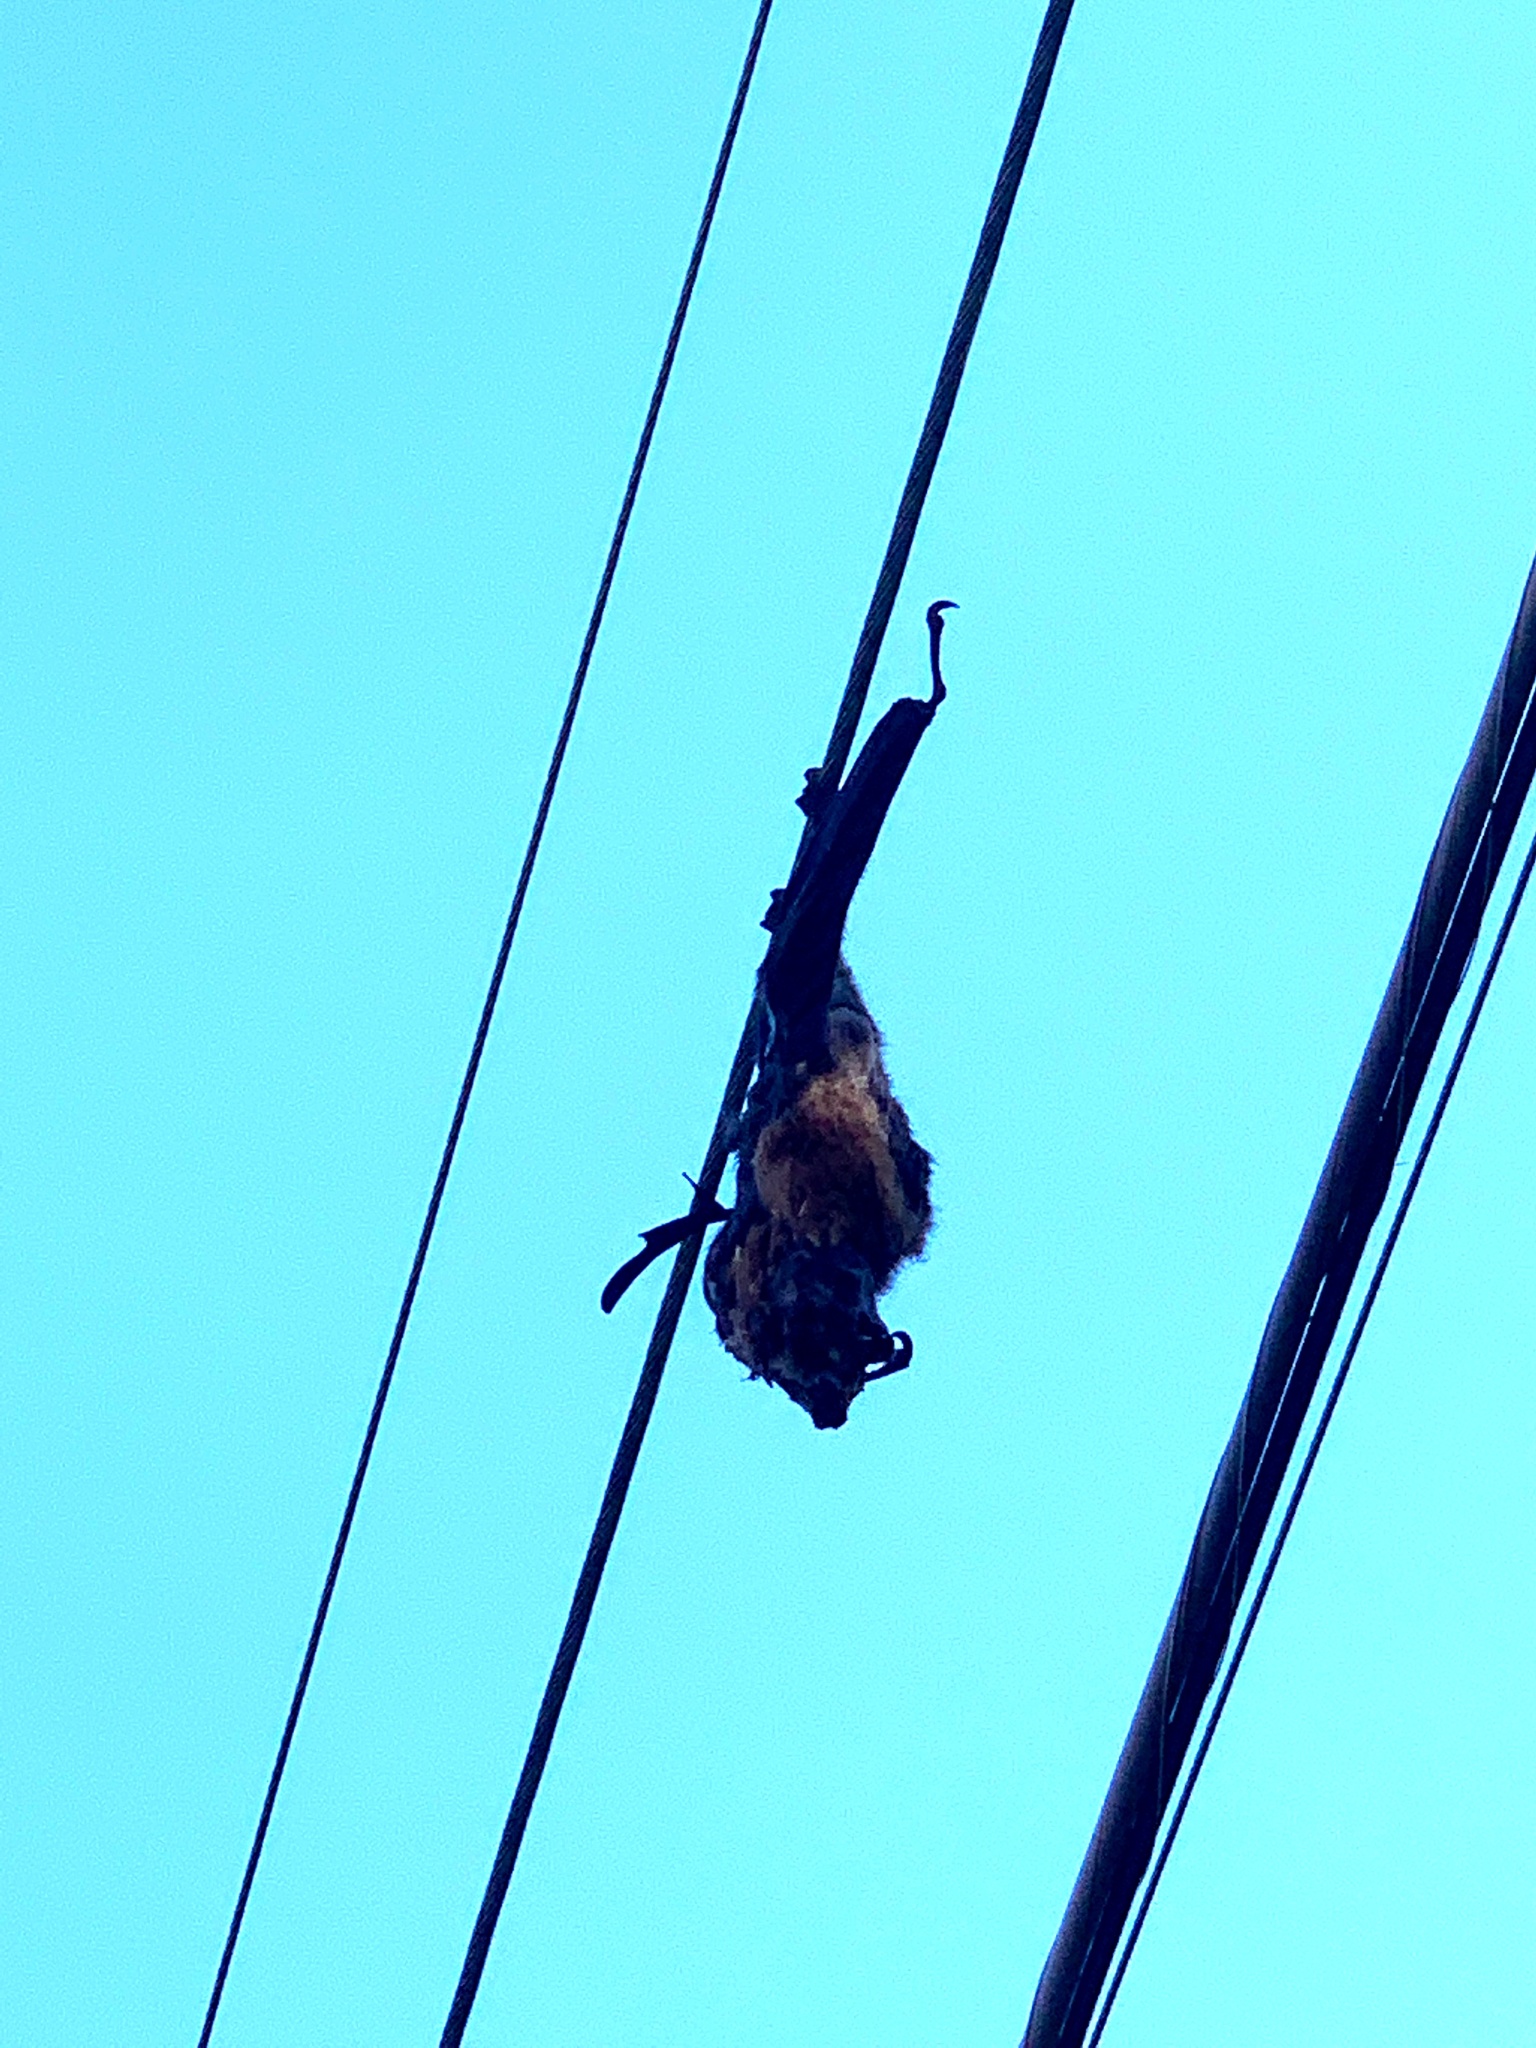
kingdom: Animalia
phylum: Chordata
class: Mammalia
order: Chiroptera
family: Pteropodidae
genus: Pteropus
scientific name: Pteropus poliocephalus
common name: Gray-headed flying fox
